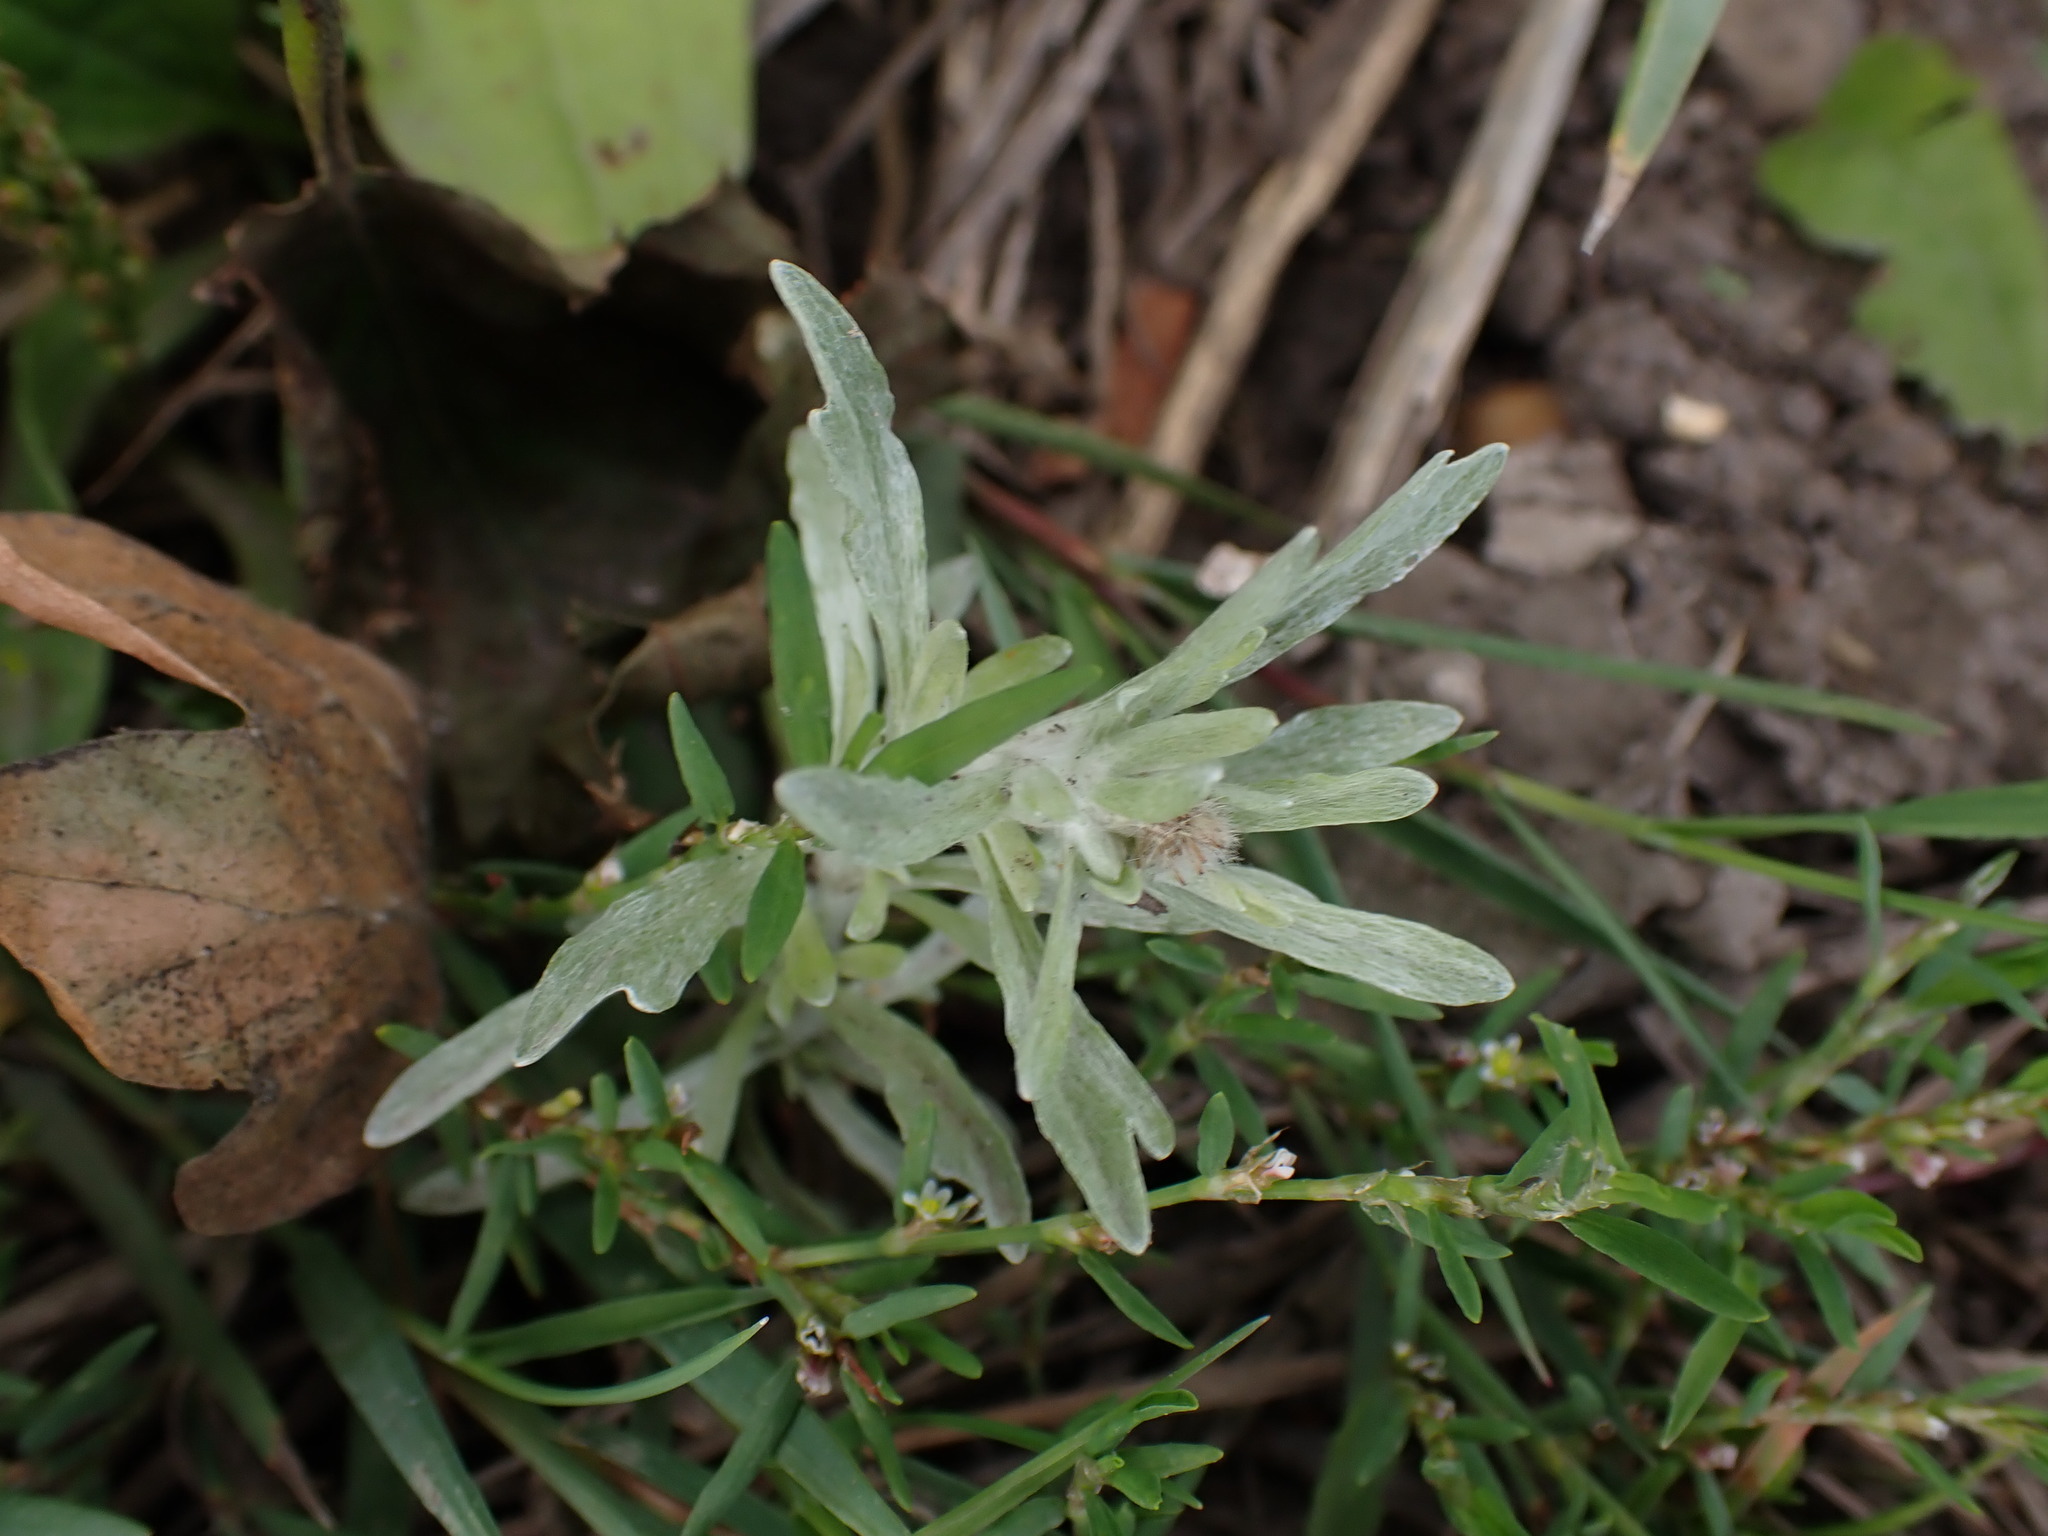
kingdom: Plantae
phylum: Tracheophyta
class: Magnoliopsida
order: Asterales
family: Asteraceae
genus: Gnaphalium
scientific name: Gnaphalium uliginosum
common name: Marsh cudweed
